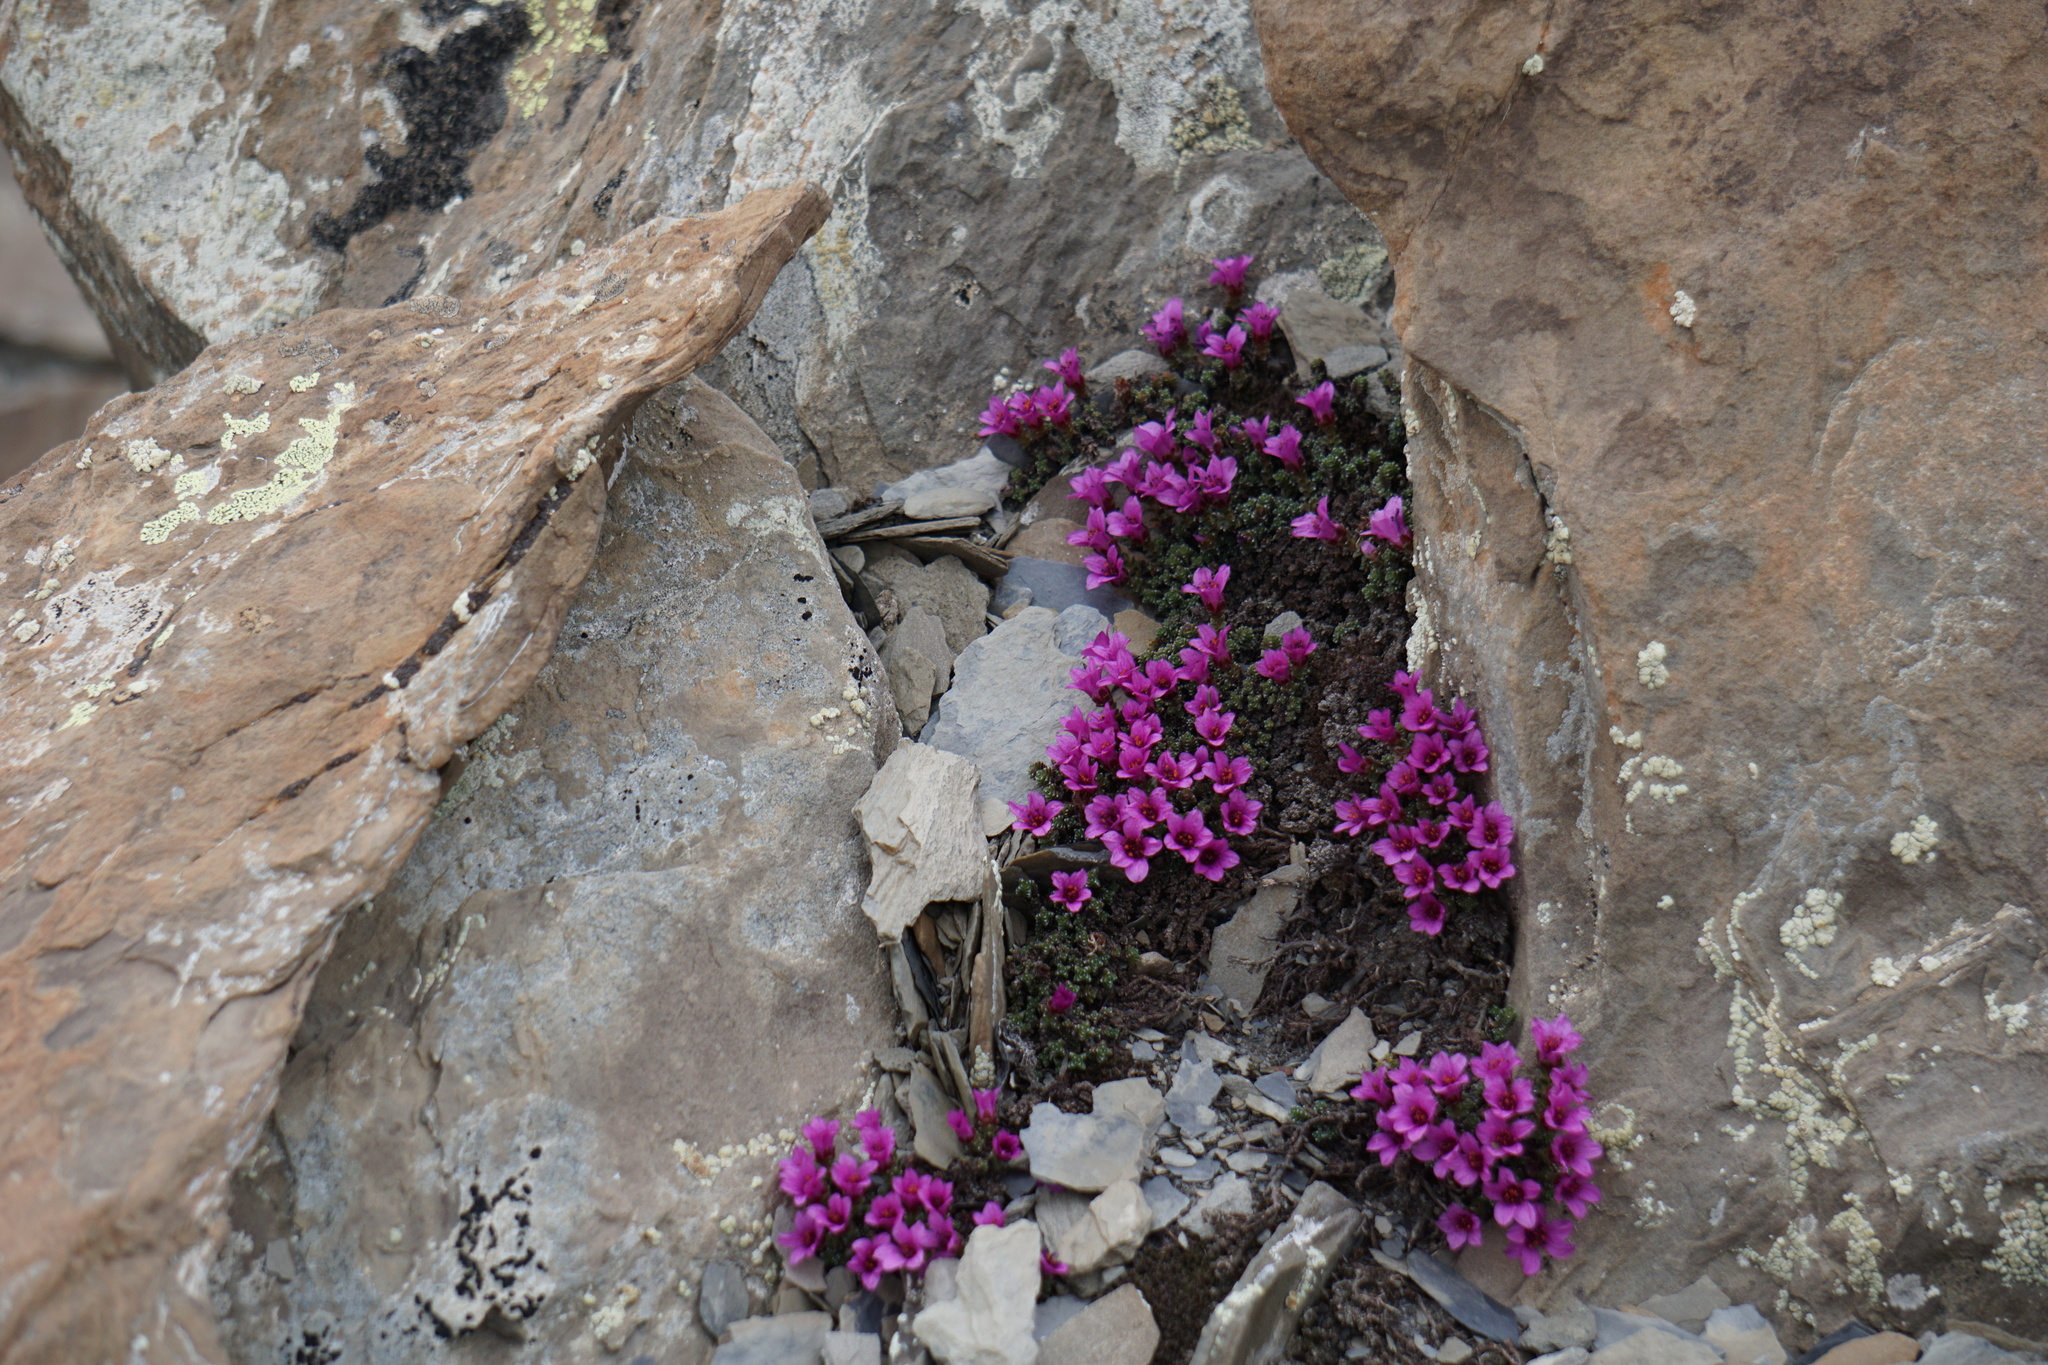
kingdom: Plantae
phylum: Tracheophyta
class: Magnoliopsida
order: Saxifragales
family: Saxifragaceae
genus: Saxifraga
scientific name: Saxifraga oppositifolia
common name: Purple saxifrage
